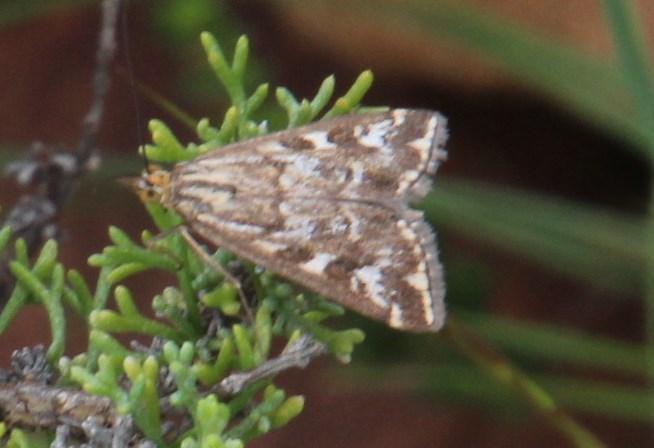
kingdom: Animalia
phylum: Arthropoda
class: Insecta
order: Lepidoptera
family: Crambidae
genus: Loxostege
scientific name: Loxostege frustalis
